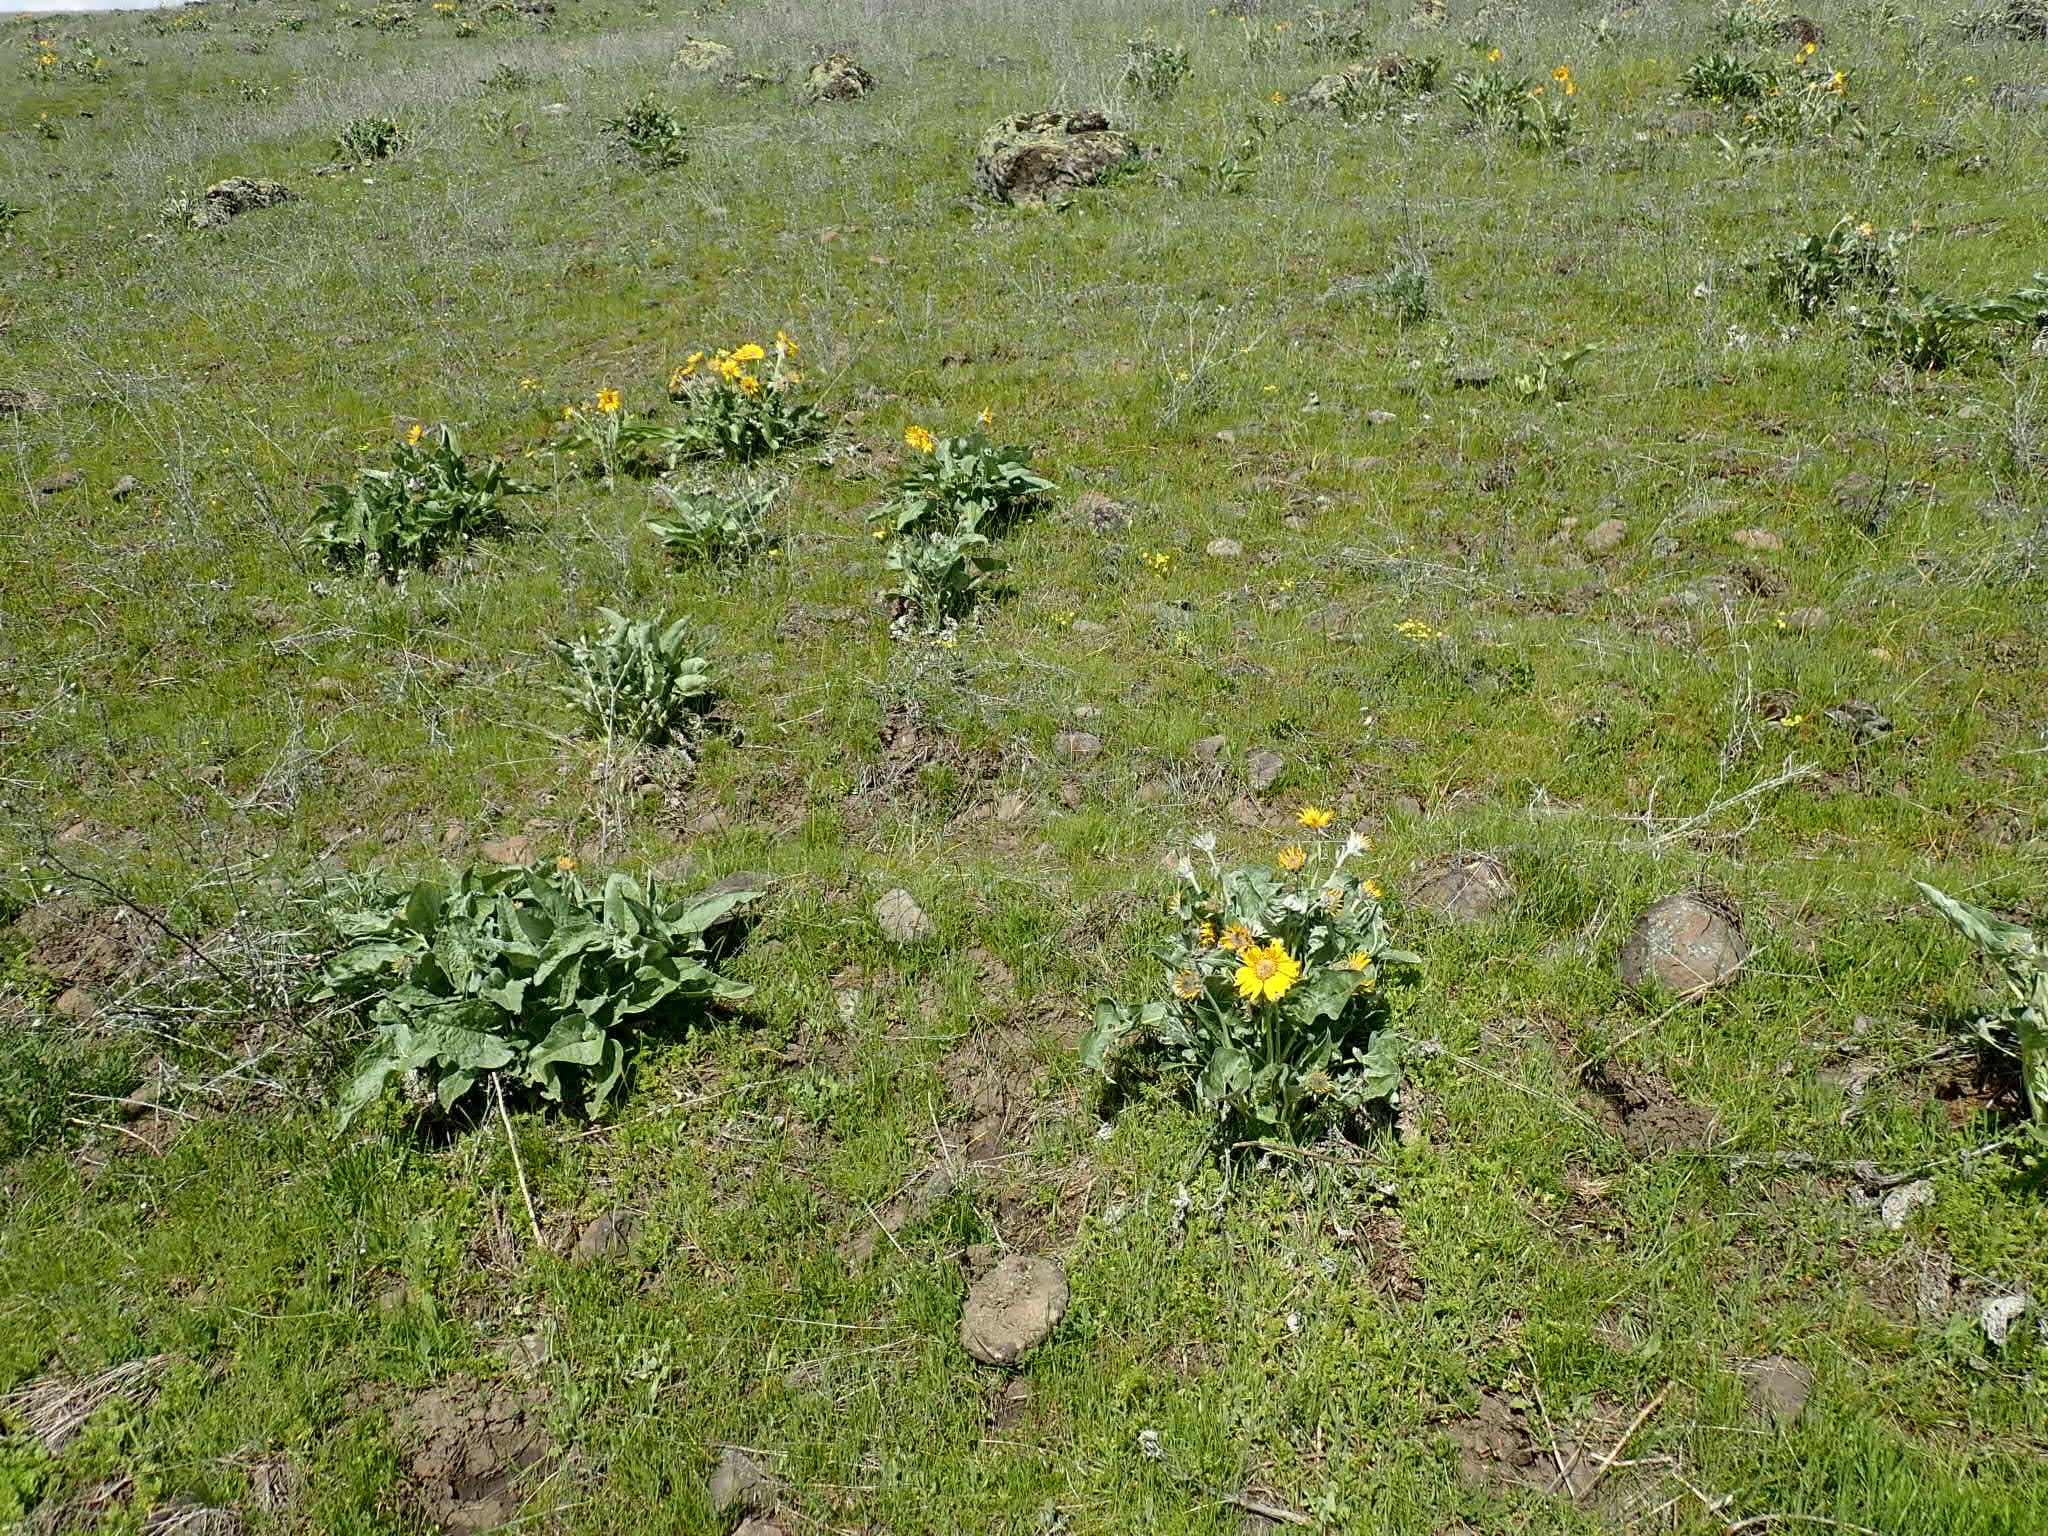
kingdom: Plantae
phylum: Tracheophyta
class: Magnoliopsida
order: Asterales
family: Asteraceae
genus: Wyethia
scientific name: Wyethia sagittata
